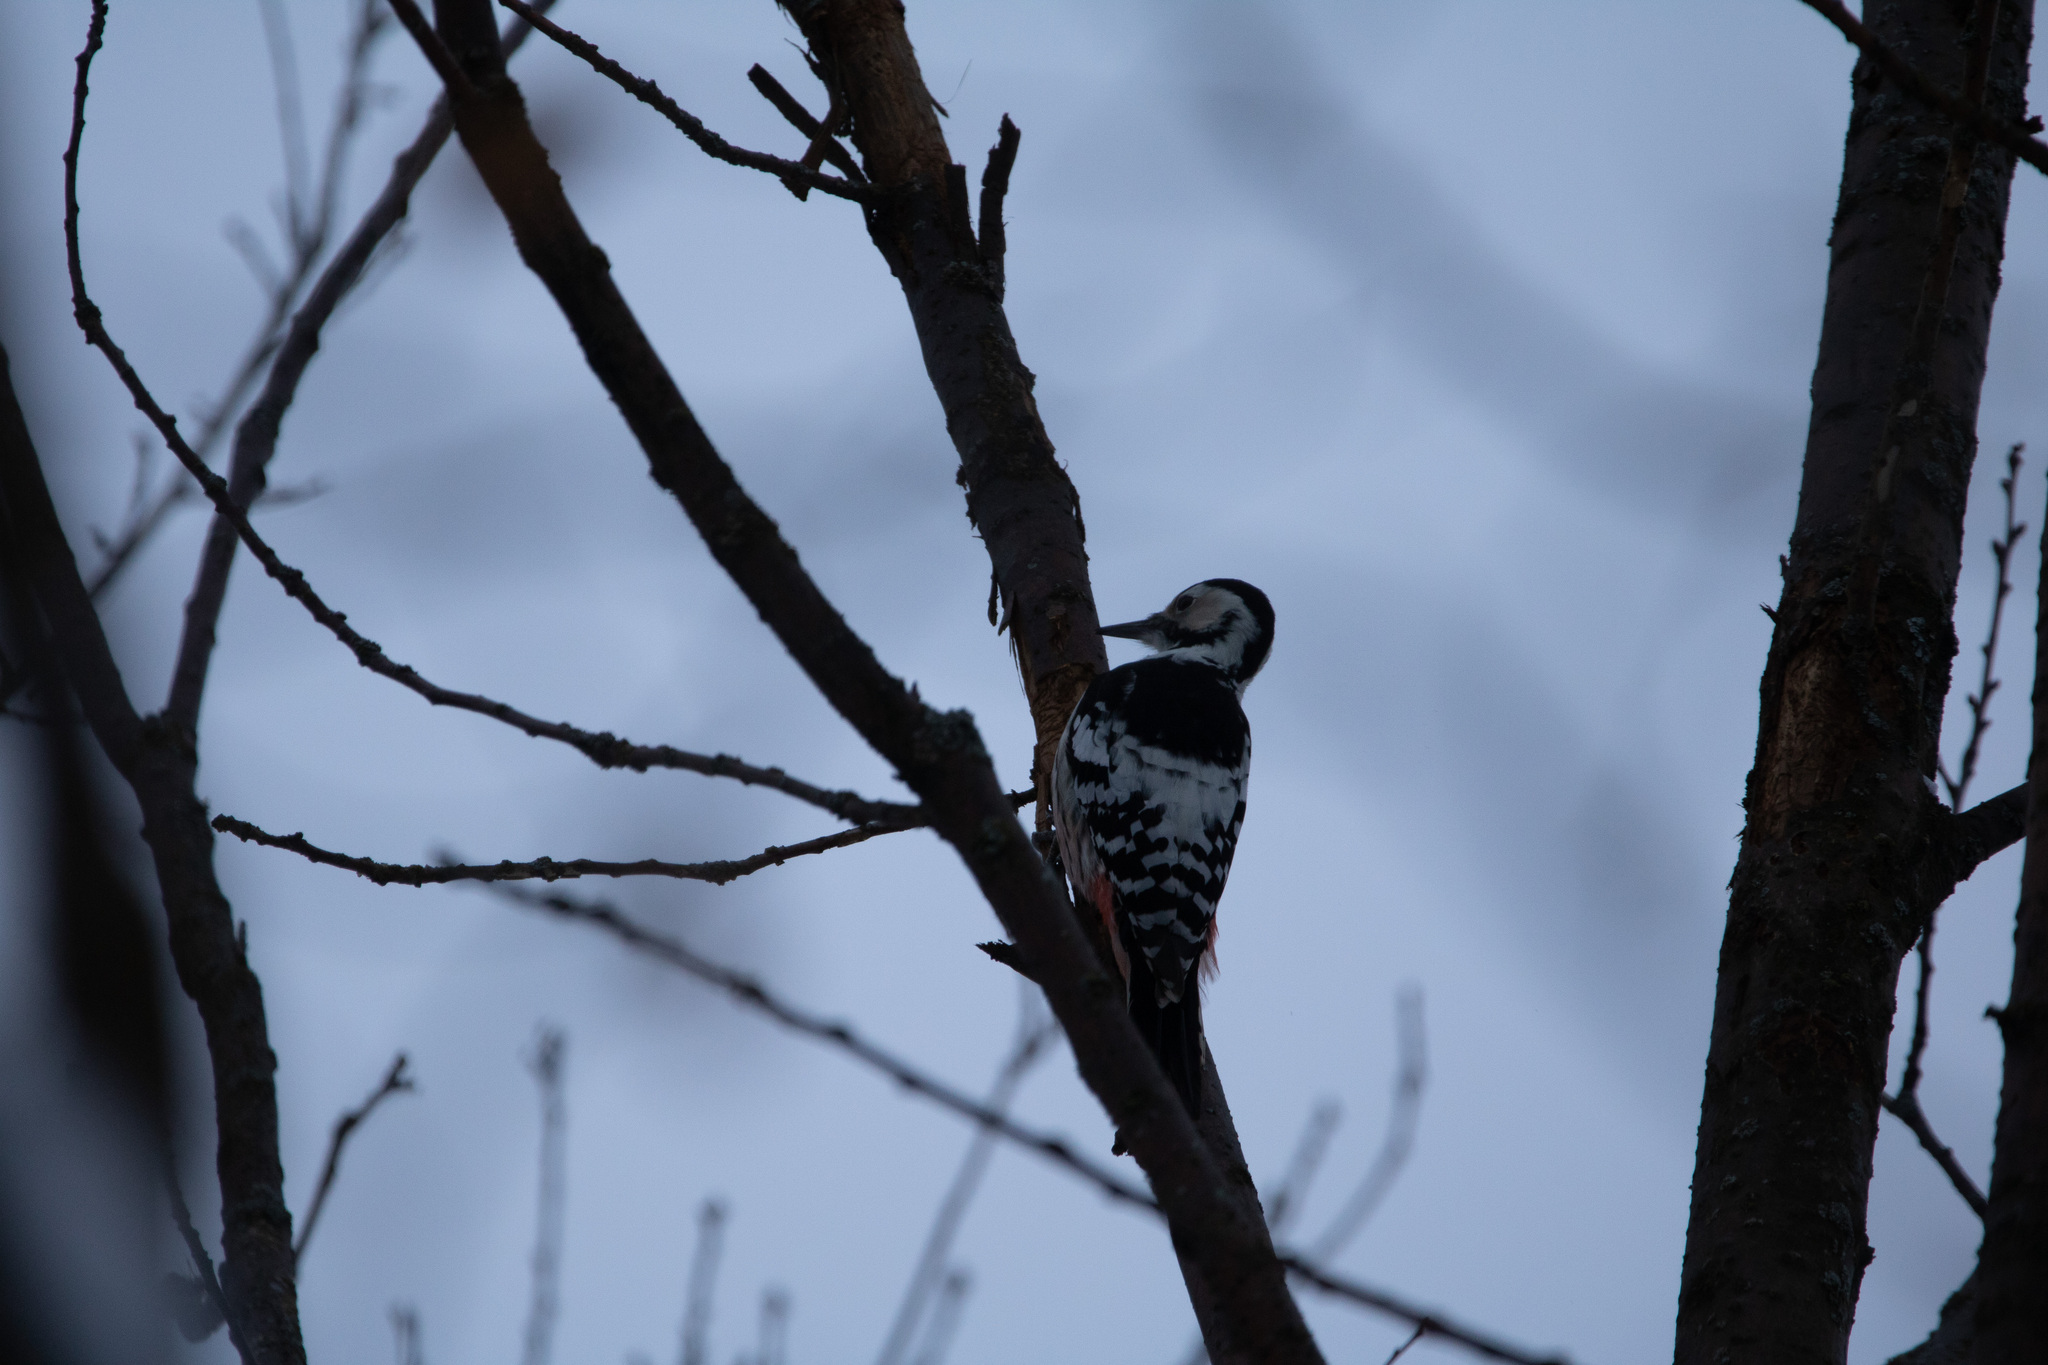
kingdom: Animalia
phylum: Chordata
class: Aves
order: Piciformes
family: Picidae
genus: Dendrocopos
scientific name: Dendrocopos leucotos
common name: White-backed woodpecker
